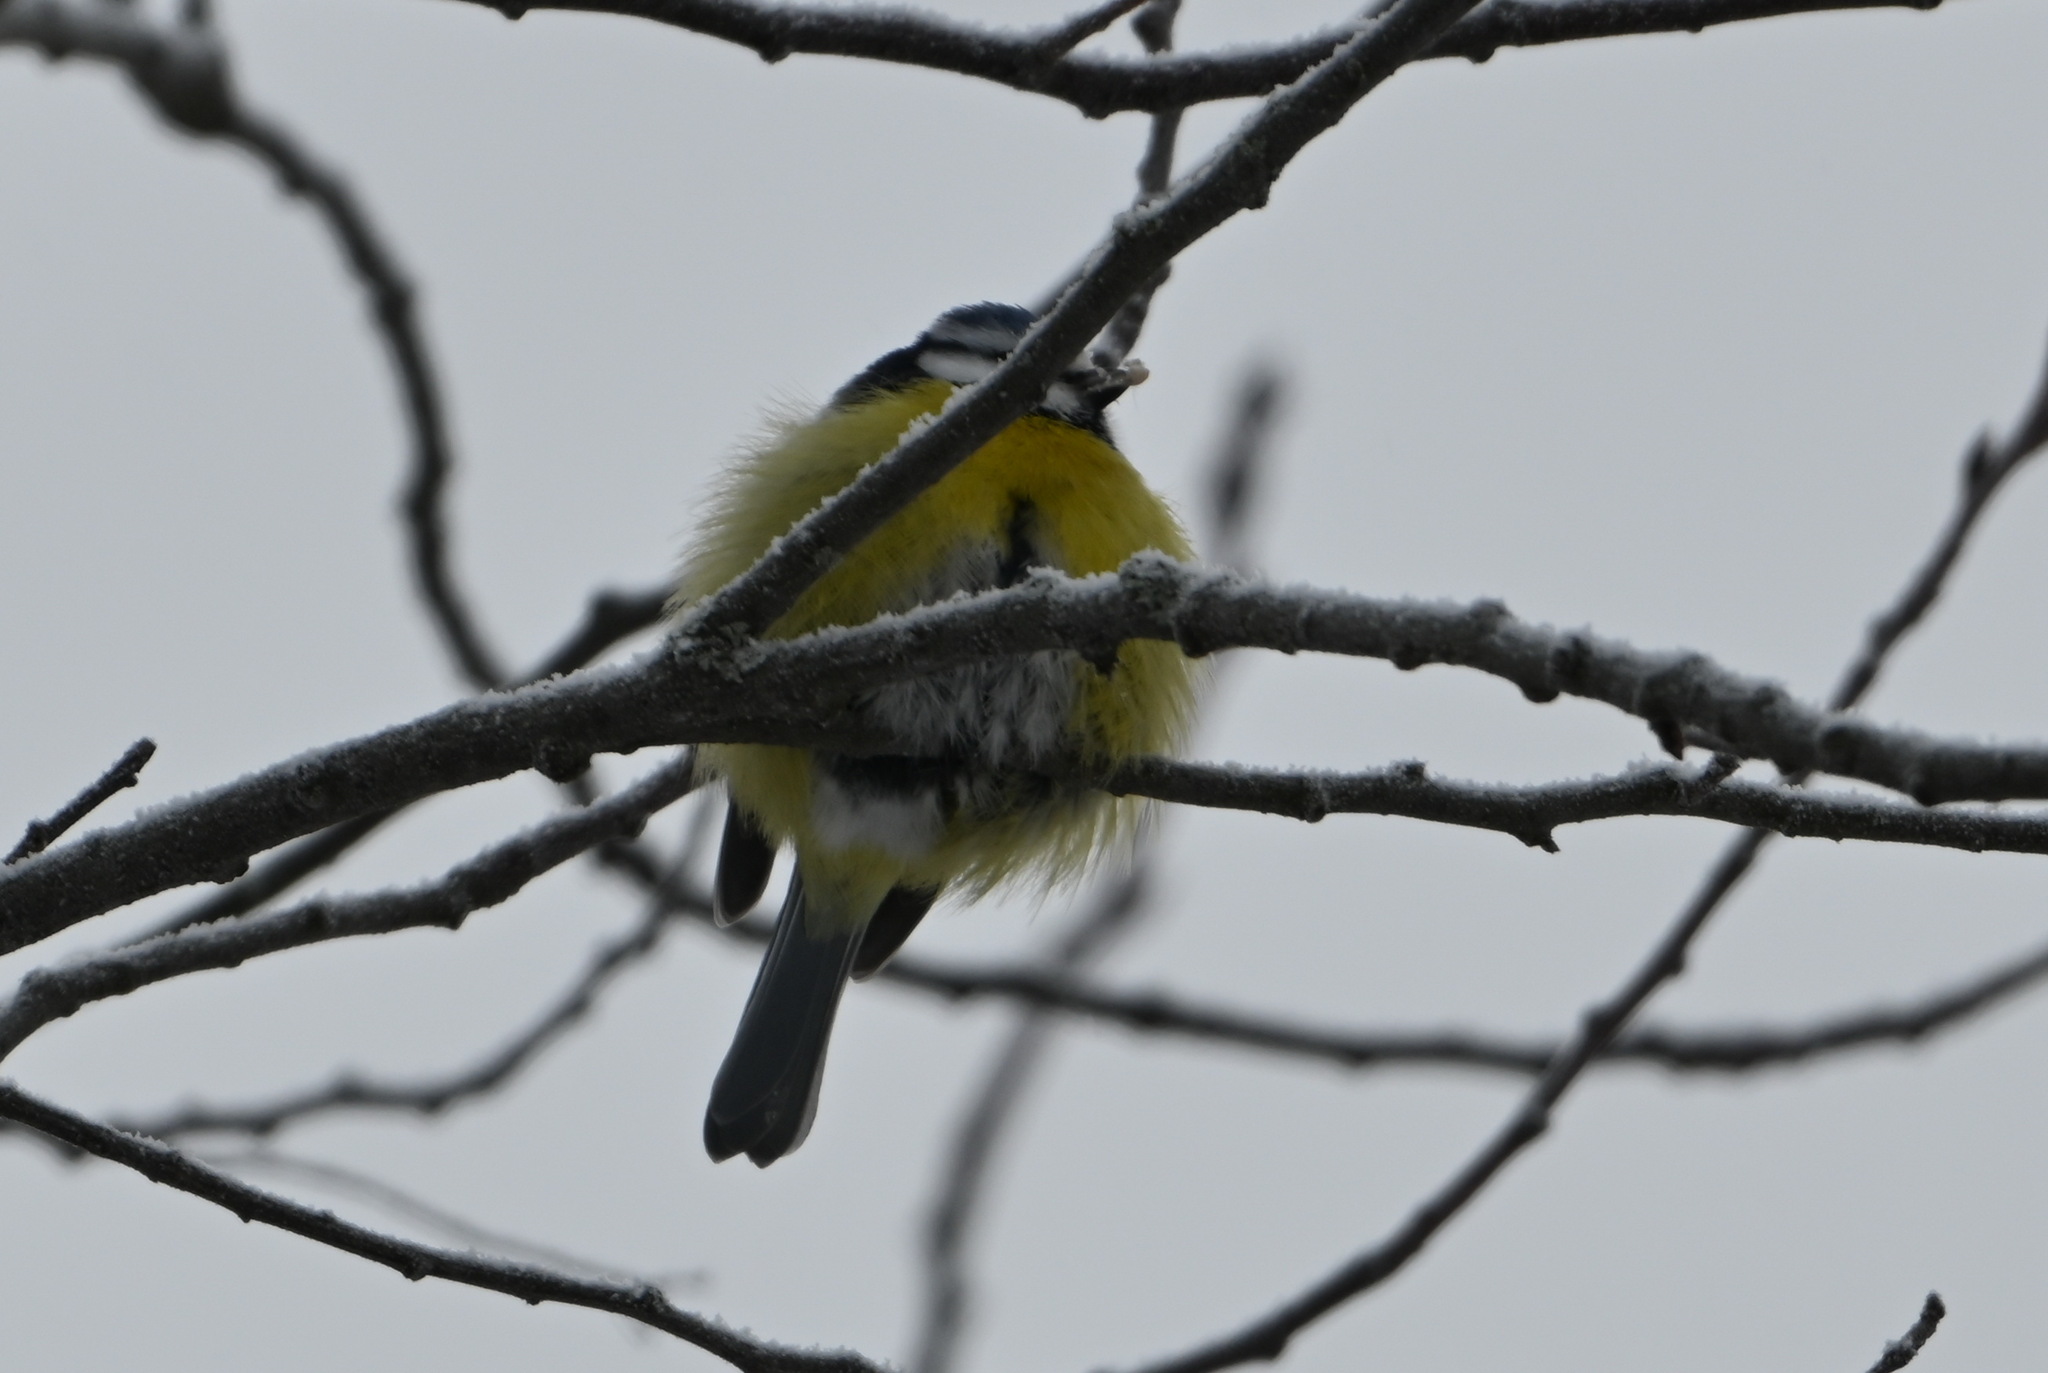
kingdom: Animalia
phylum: Chordata
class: Aves
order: Passeriformes
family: Paridae
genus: Cyanistes
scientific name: Cyanistes caeruleus
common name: Eurasian blue tit
